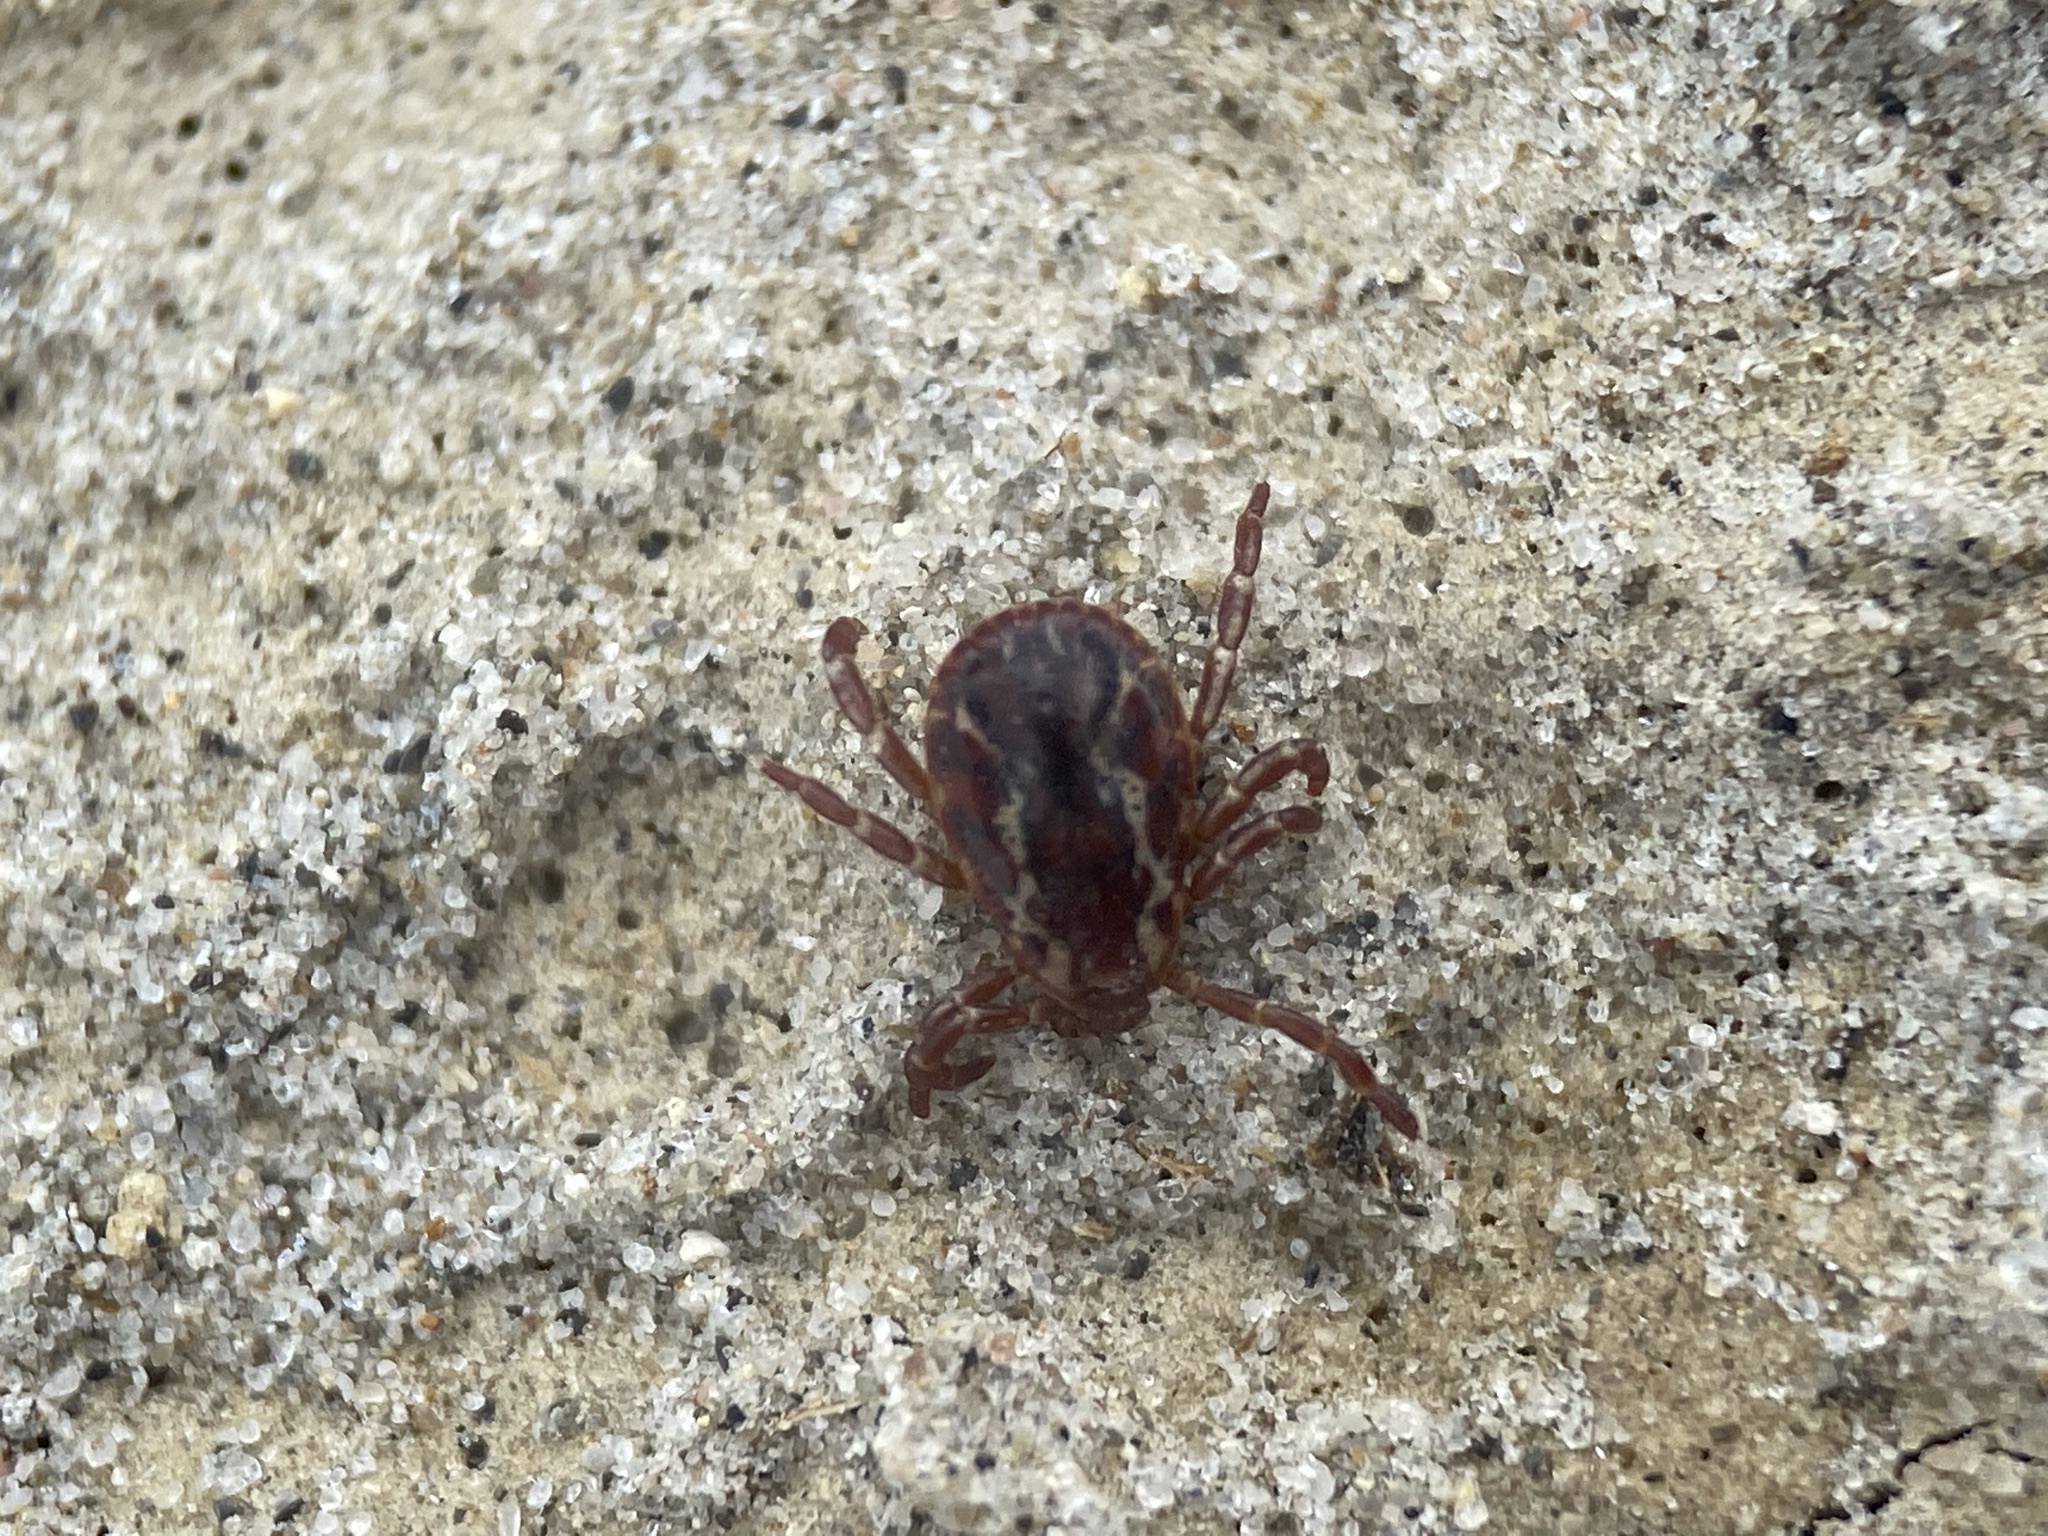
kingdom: Animalia
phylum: Arthropoda
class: Arachnida
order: Ixodida
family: Ixodidae
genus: Dermacentor
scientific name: Dermacentor variabilis
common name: American dog tick
